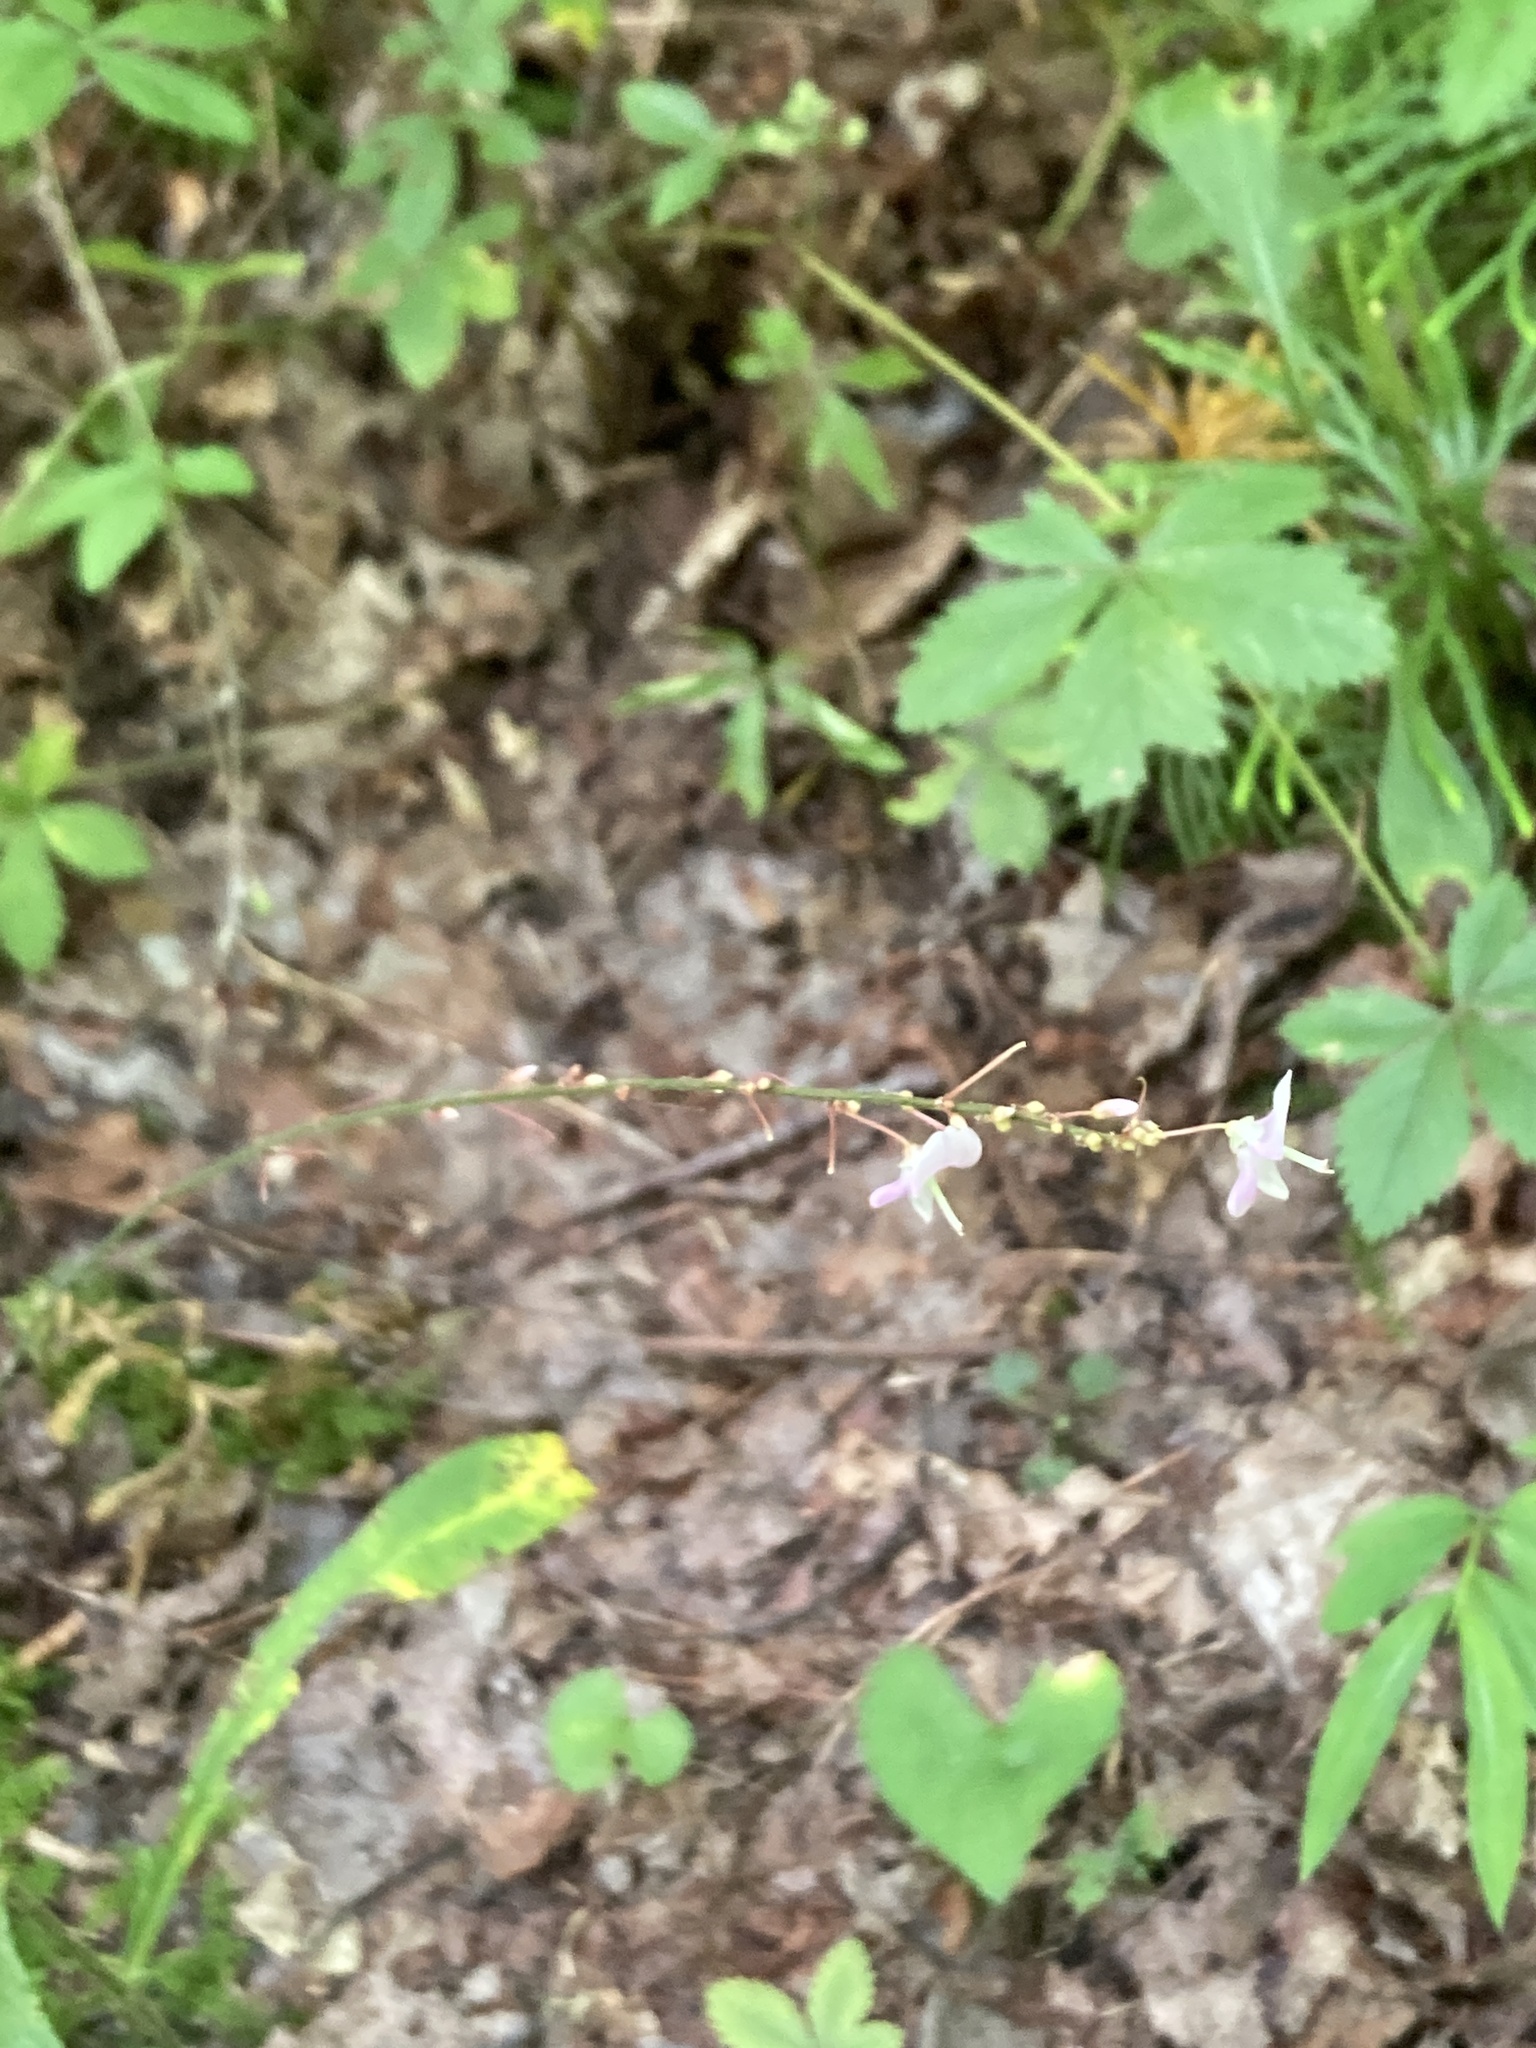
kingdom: Plantae
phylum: Tracheophyta
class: Magnoliopsida
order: Fabales
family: Fabaceae
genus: Hylodesmum
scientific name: Hylodesmum nudiflorum
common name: Bare-stemmed tick-trefoil
